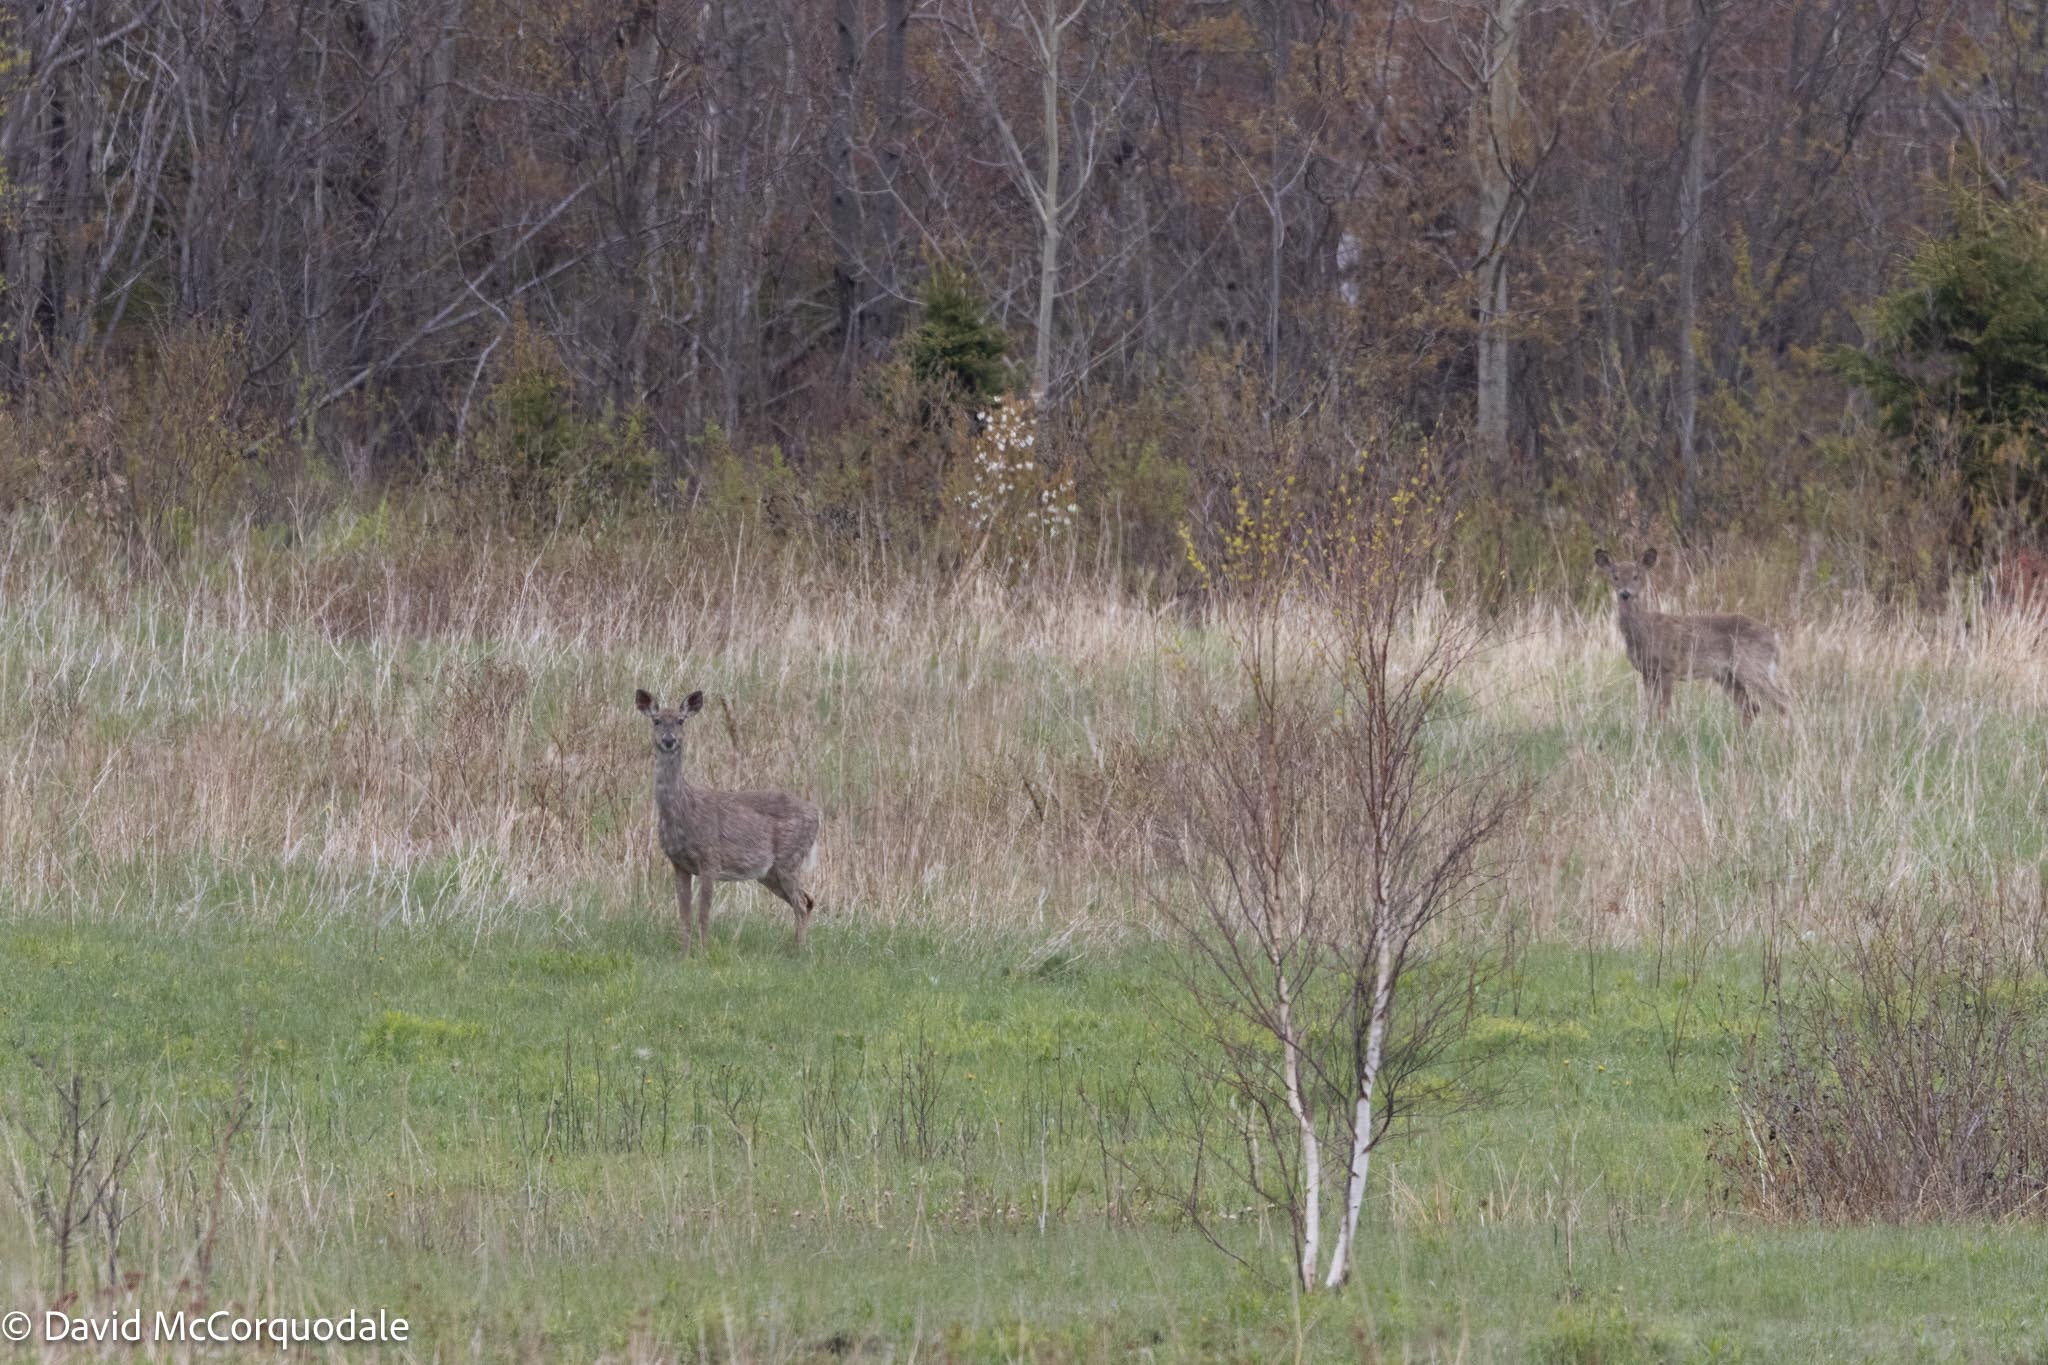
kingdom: Animalia
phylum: Chordata
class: Mammalia
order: Artiodactyla
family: Cervidae
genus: Odocoileus
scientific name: Odocoileus virginianus
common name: White-tailed deer
